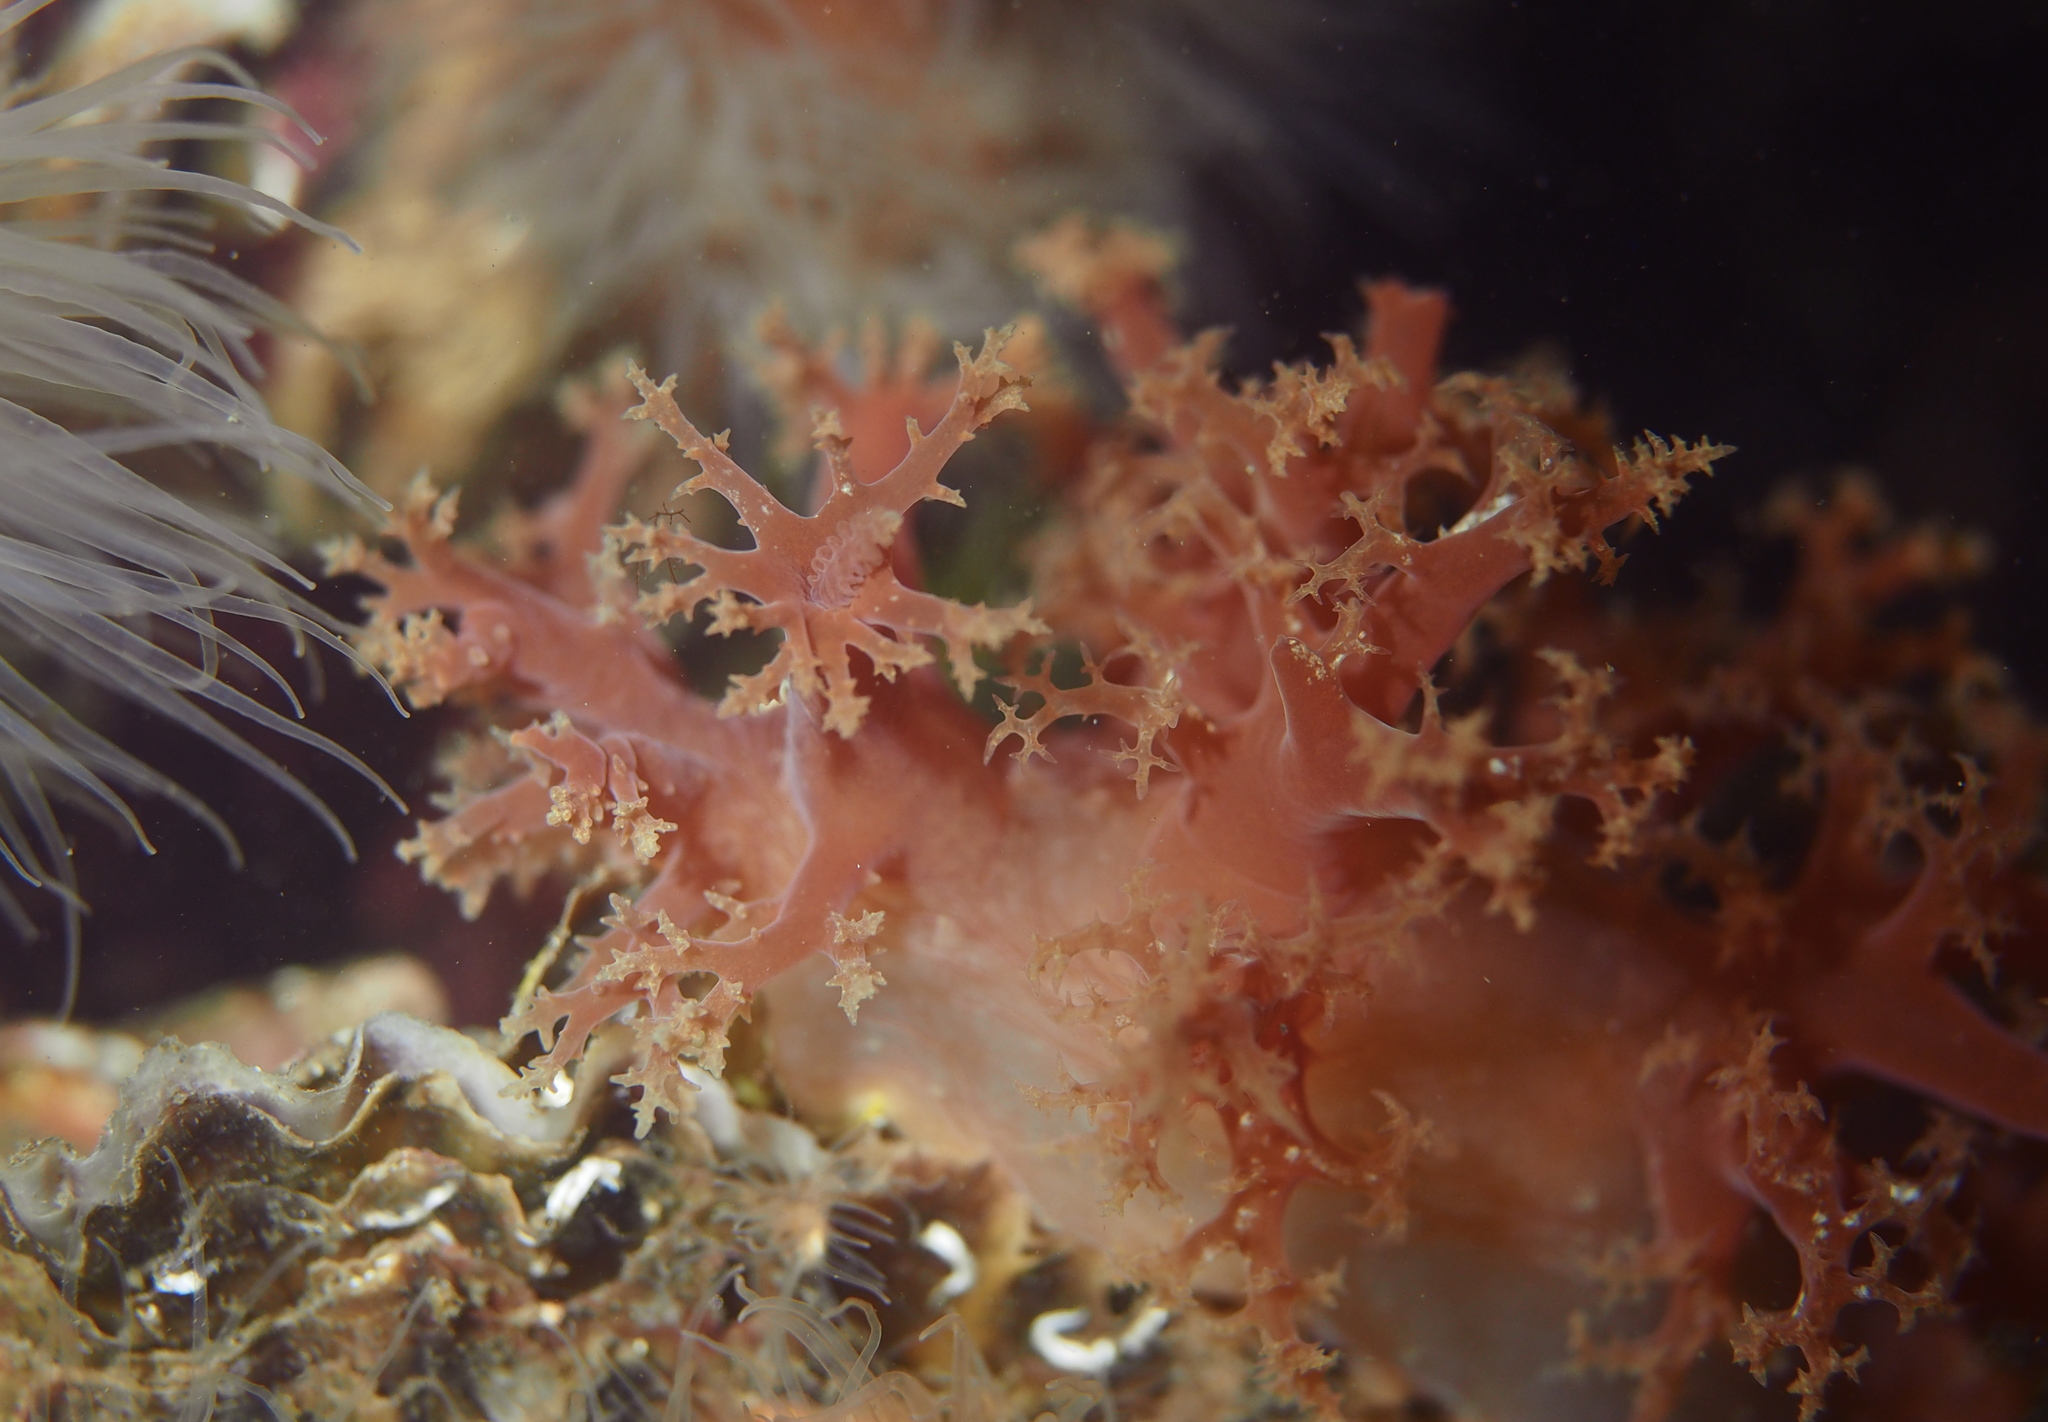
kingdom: Animalia
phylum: Mollusca
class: Gastropoda
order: Nudibranchia
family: Dendronotidae
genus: Dendronotus
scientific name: Dendronotus lacteus
